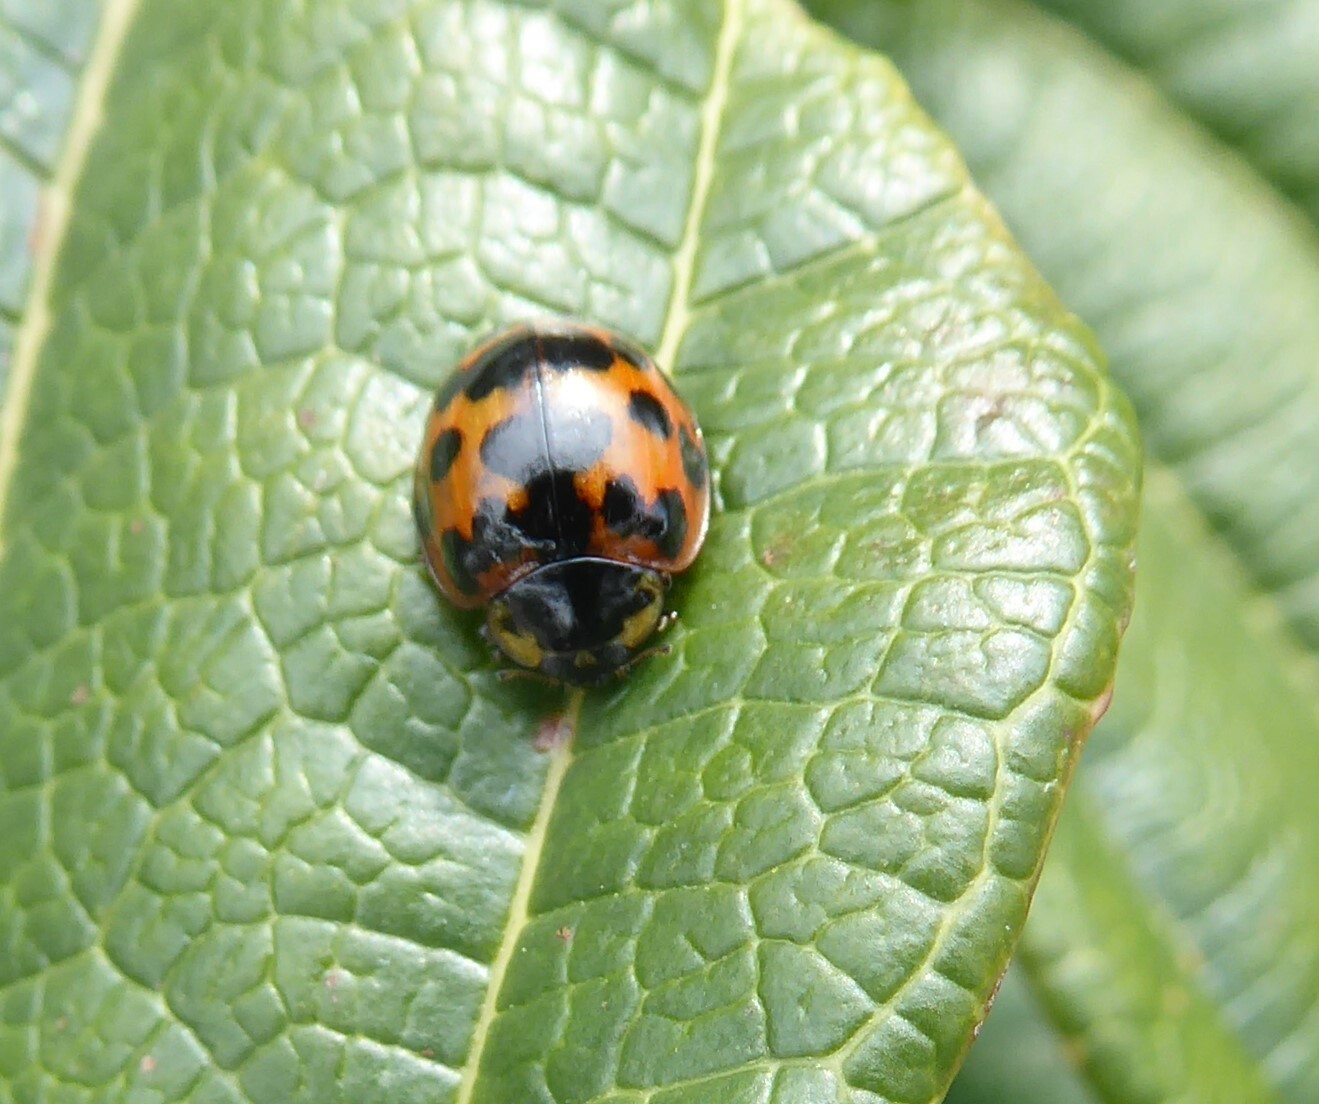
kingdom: Animalia
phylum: Arthropoda
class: Insecta
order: Coleoptera
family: Coccinellidae
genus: Harmonia
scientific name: Harmonia axyridis
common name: Harlequin ladybird
